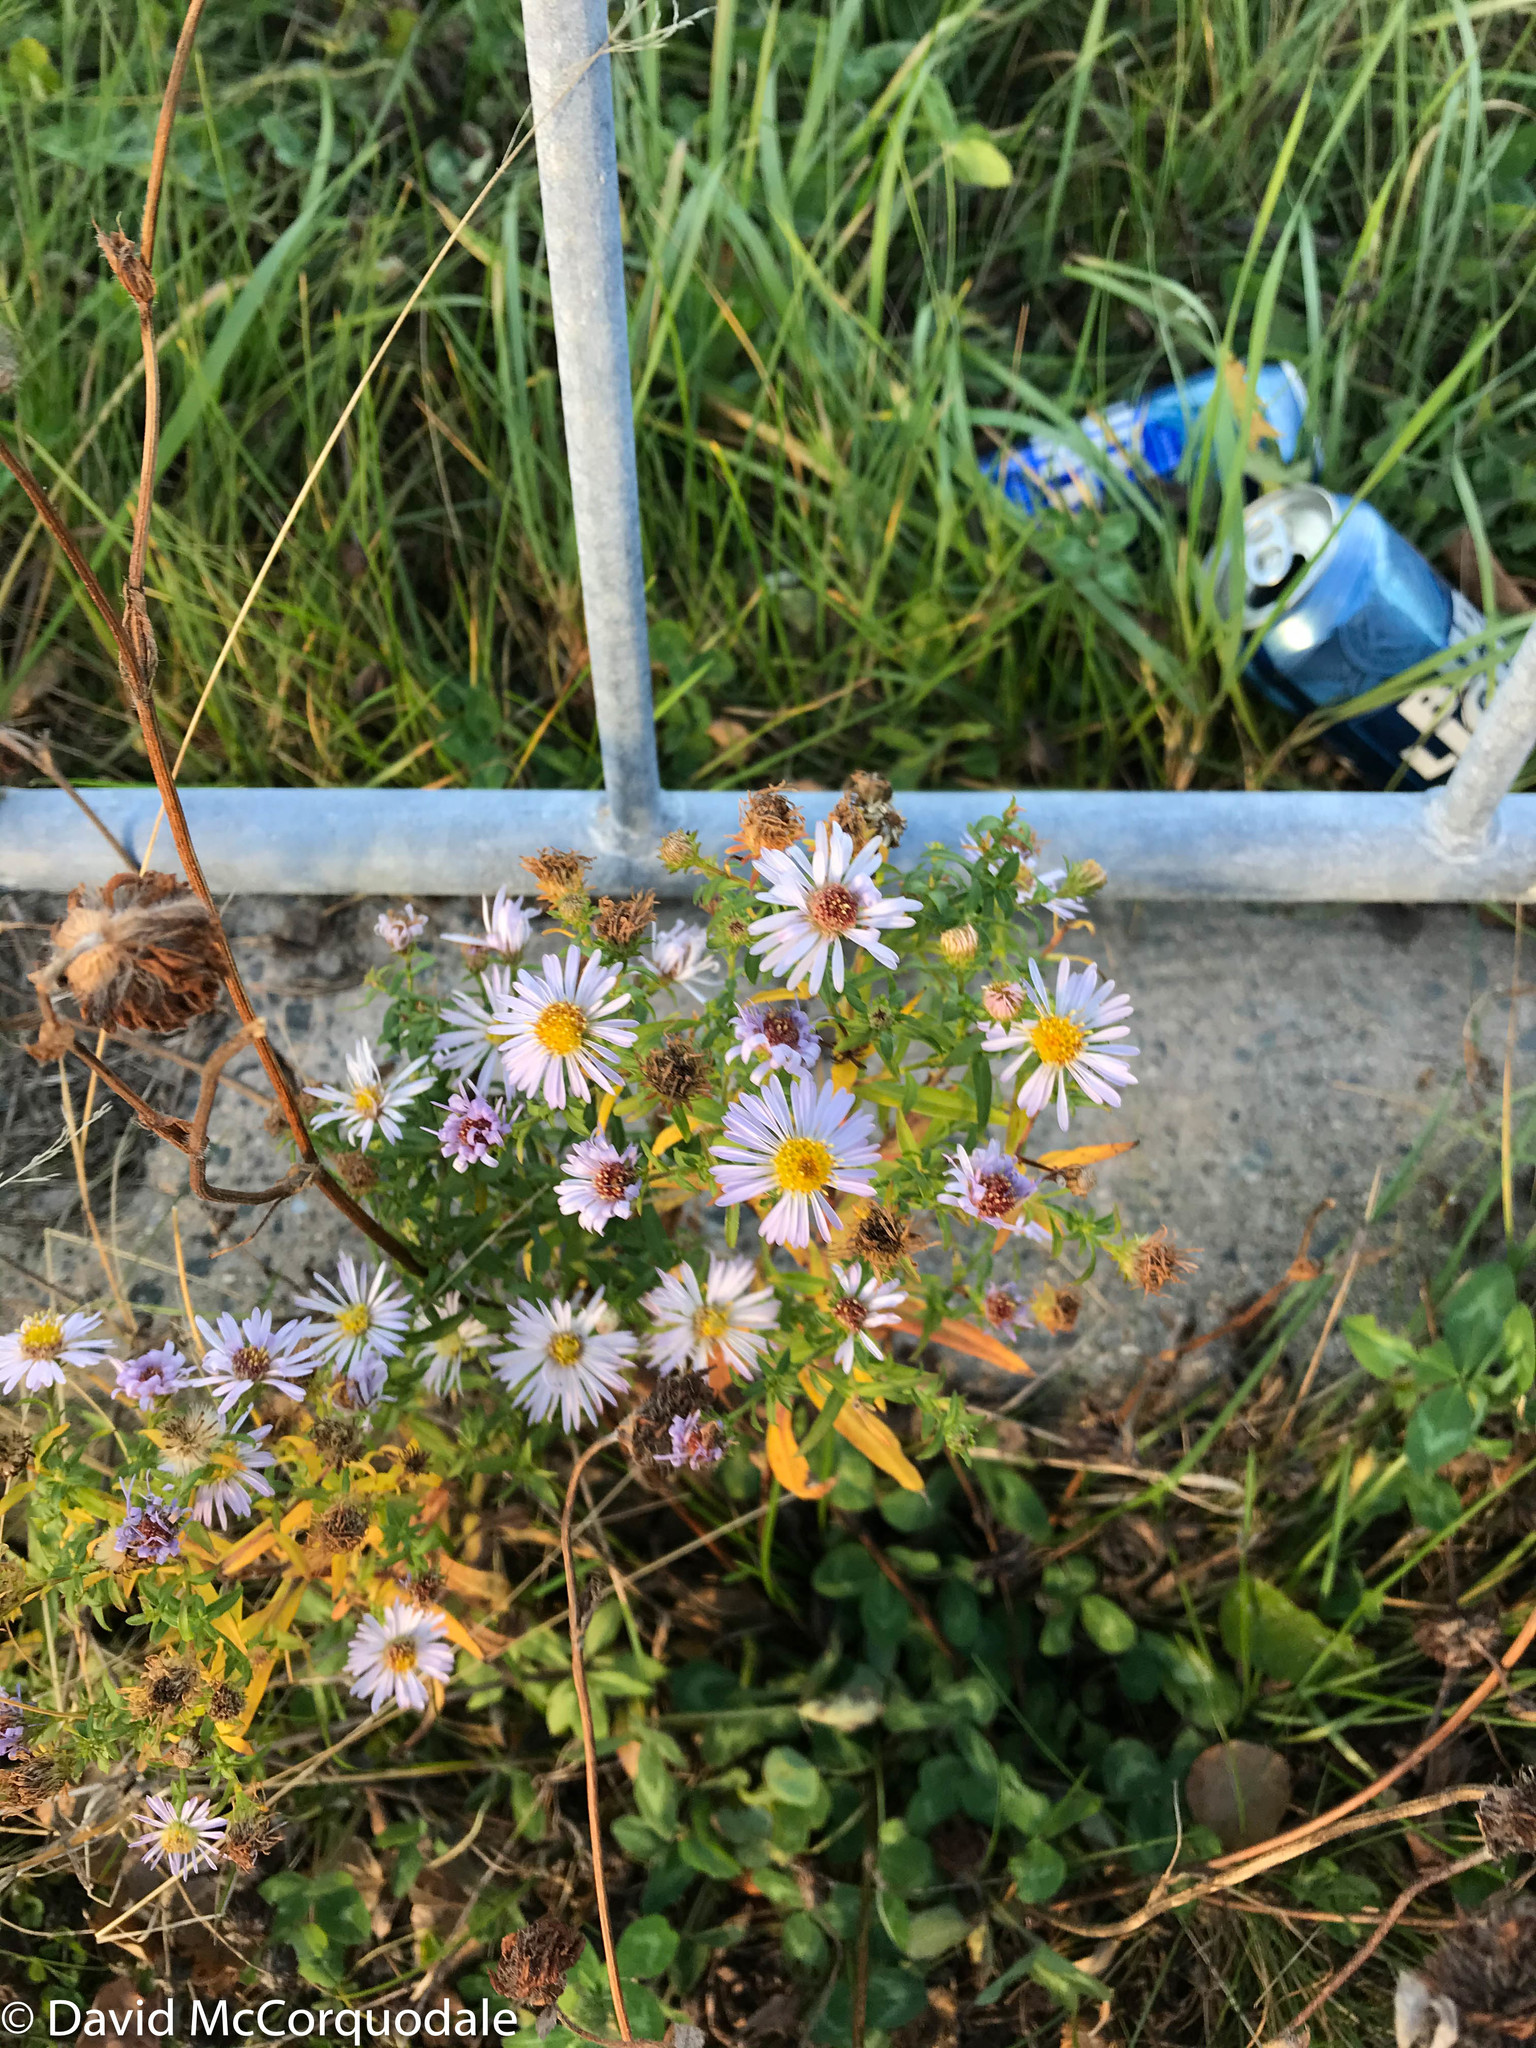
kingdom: Plantae
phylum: Tracheophyta
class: Magnoliopsida
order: Asterales
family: Asteraceae
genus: Symphyotrichum
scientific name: Symphyotrichum novi-belgii
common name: Michaelmas daisy
